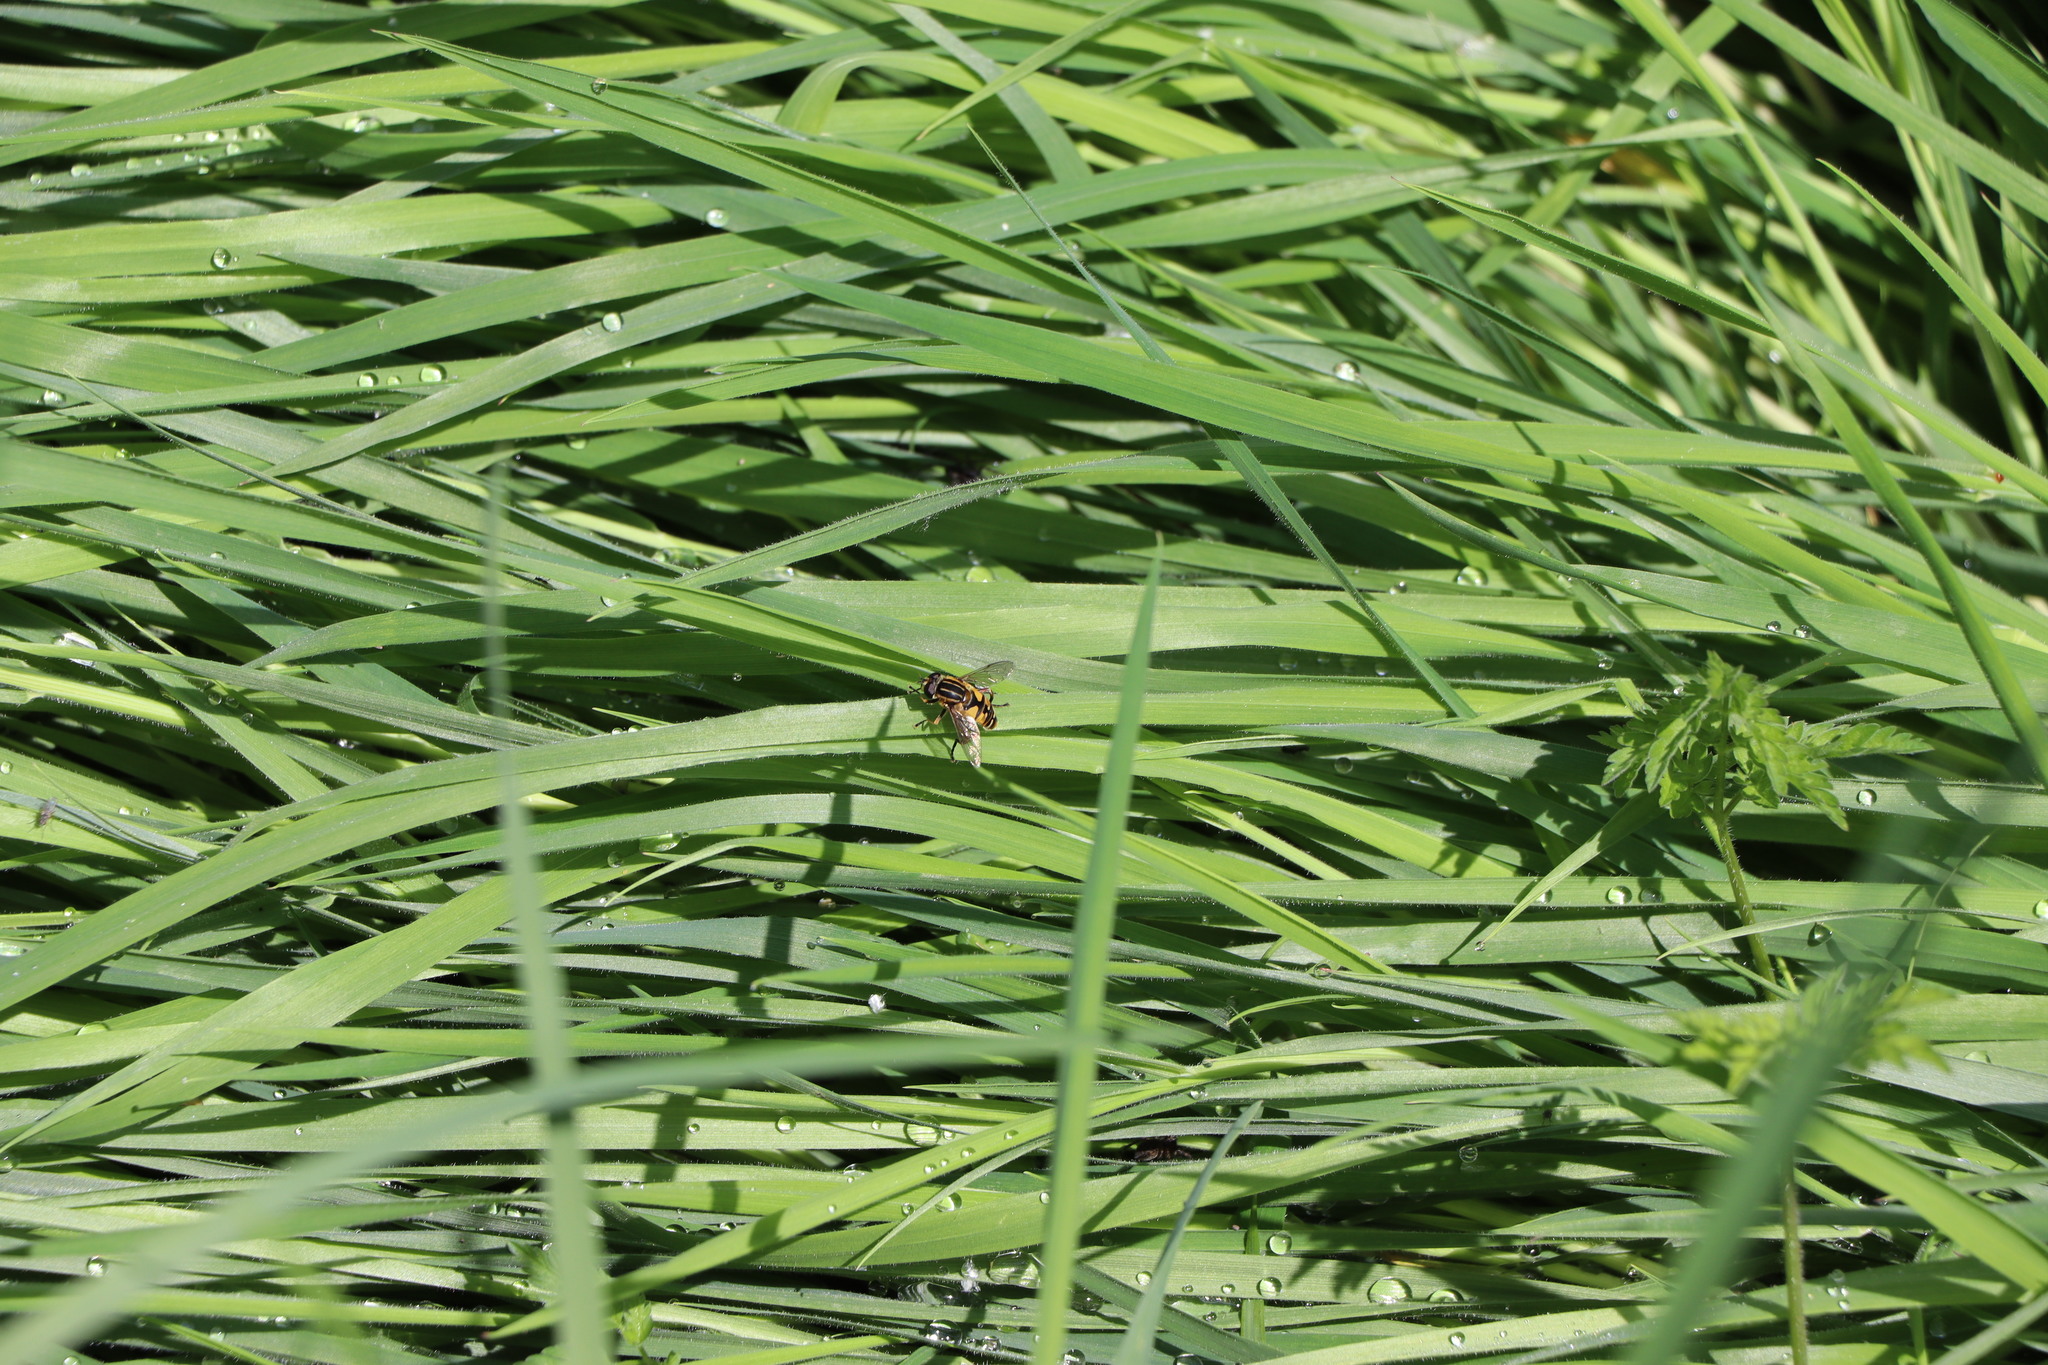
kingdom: Animalia
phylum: Arthropoda
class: Insecta
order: Diptera
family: Syrphidae
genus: Helophilus
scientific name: Helophilus pendulus
